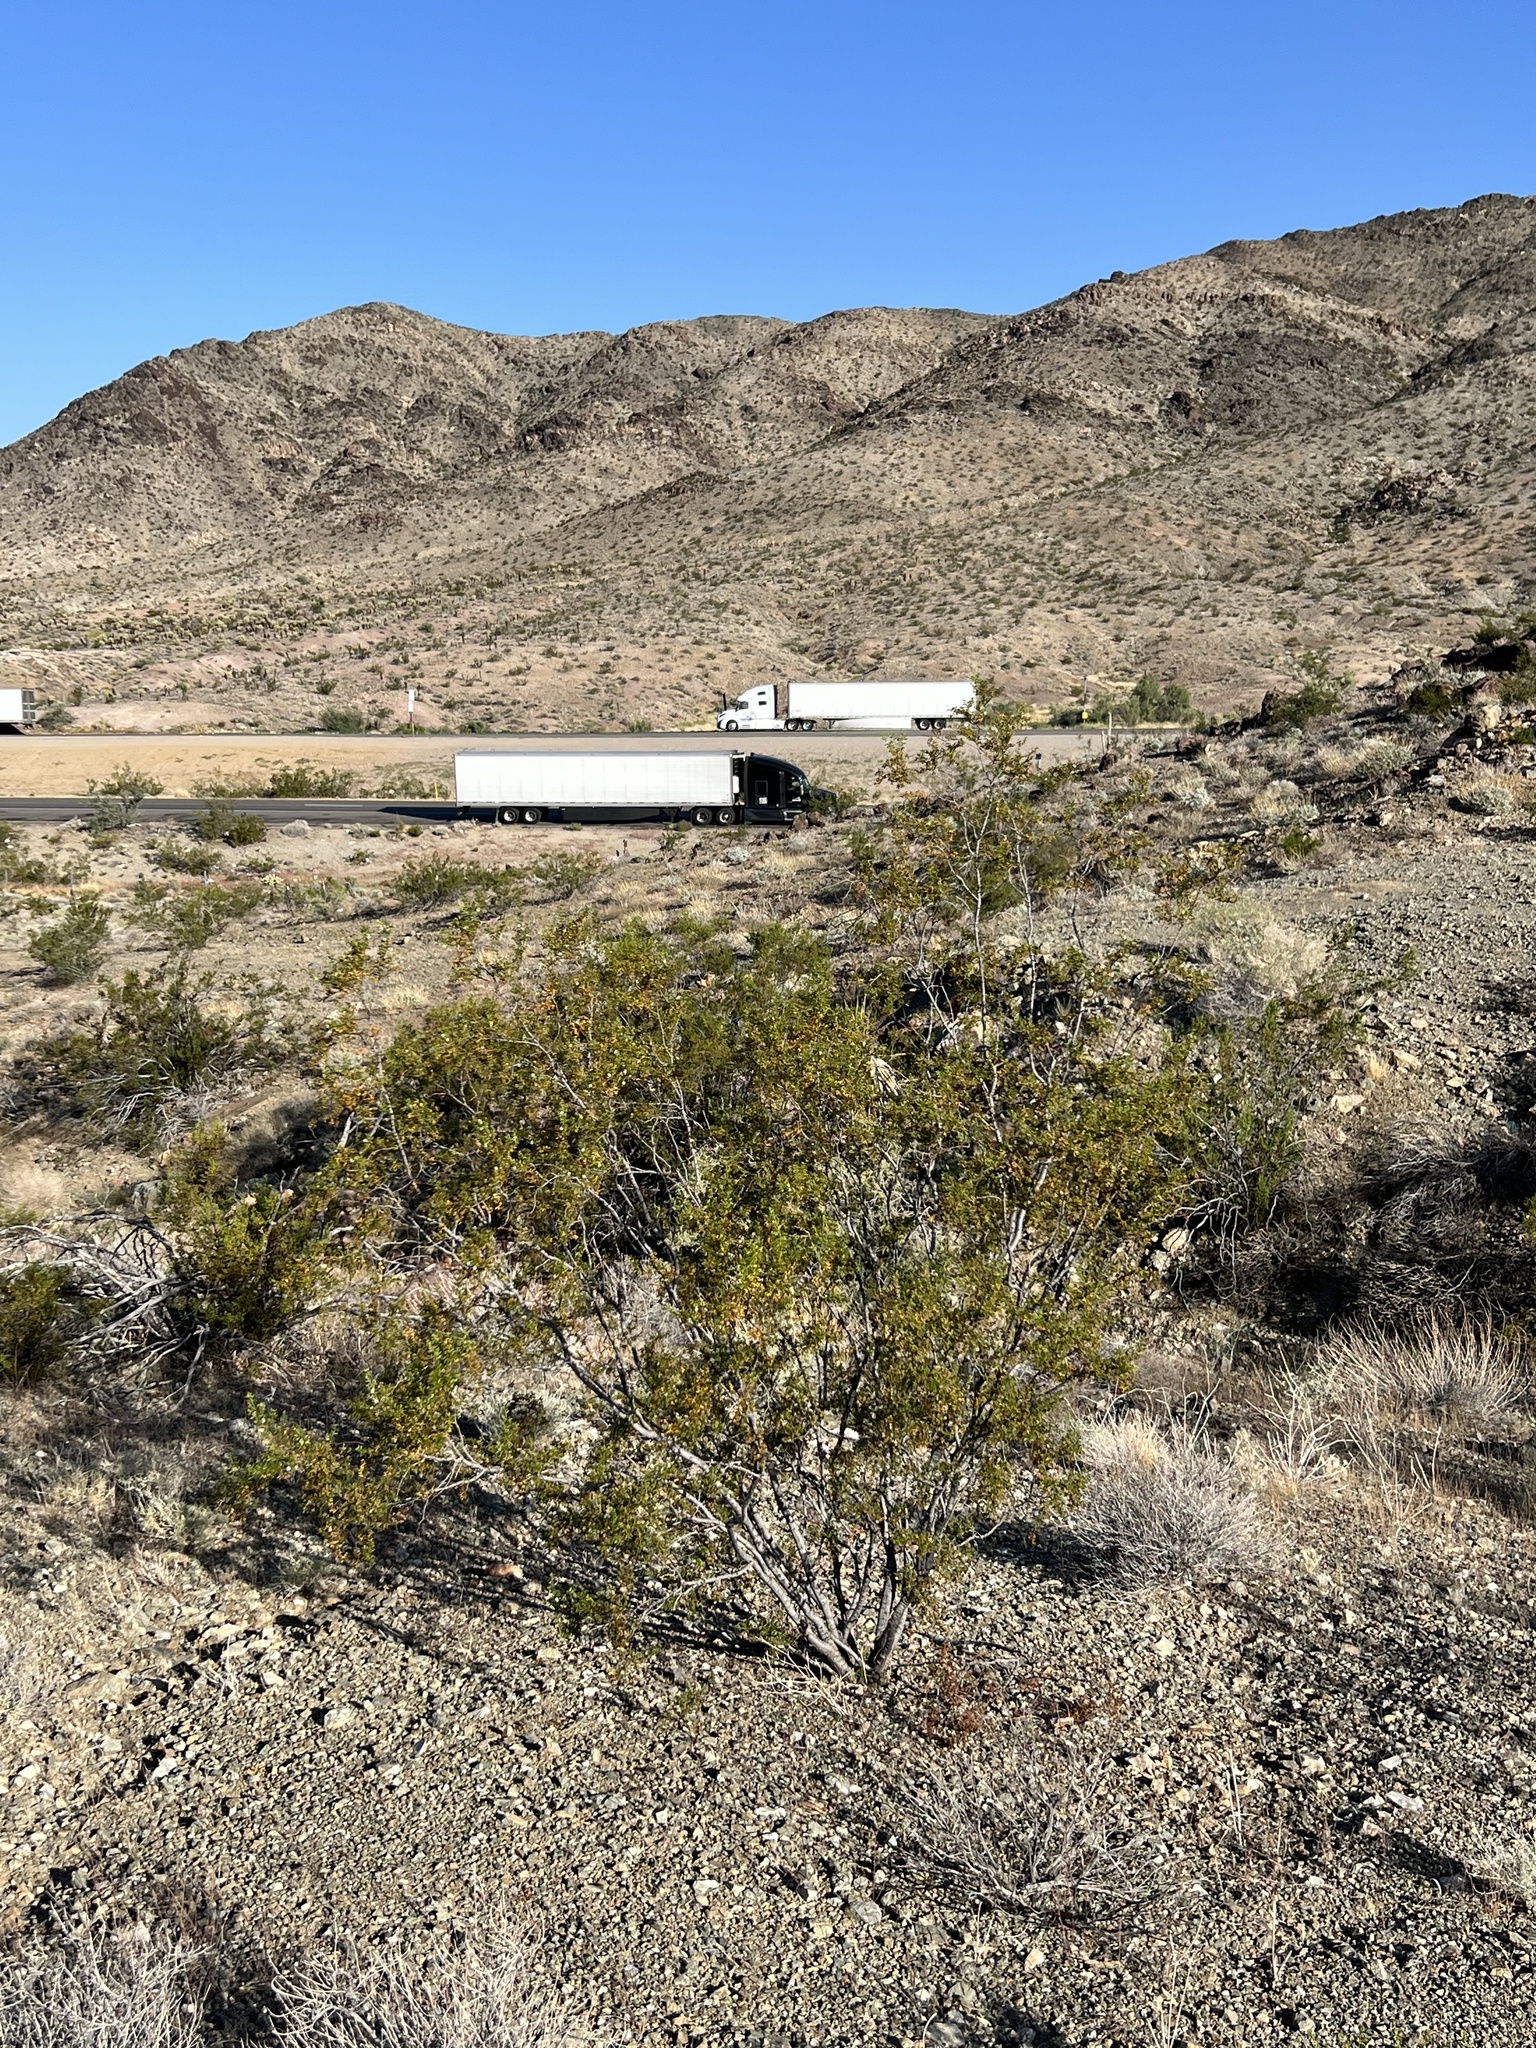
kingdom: Plantae
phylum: Tracheophyta
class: Magnoliopsida
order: Zygophyllales
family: Zygophyllaceae
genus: Larrea
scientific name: Larrea tridentata
